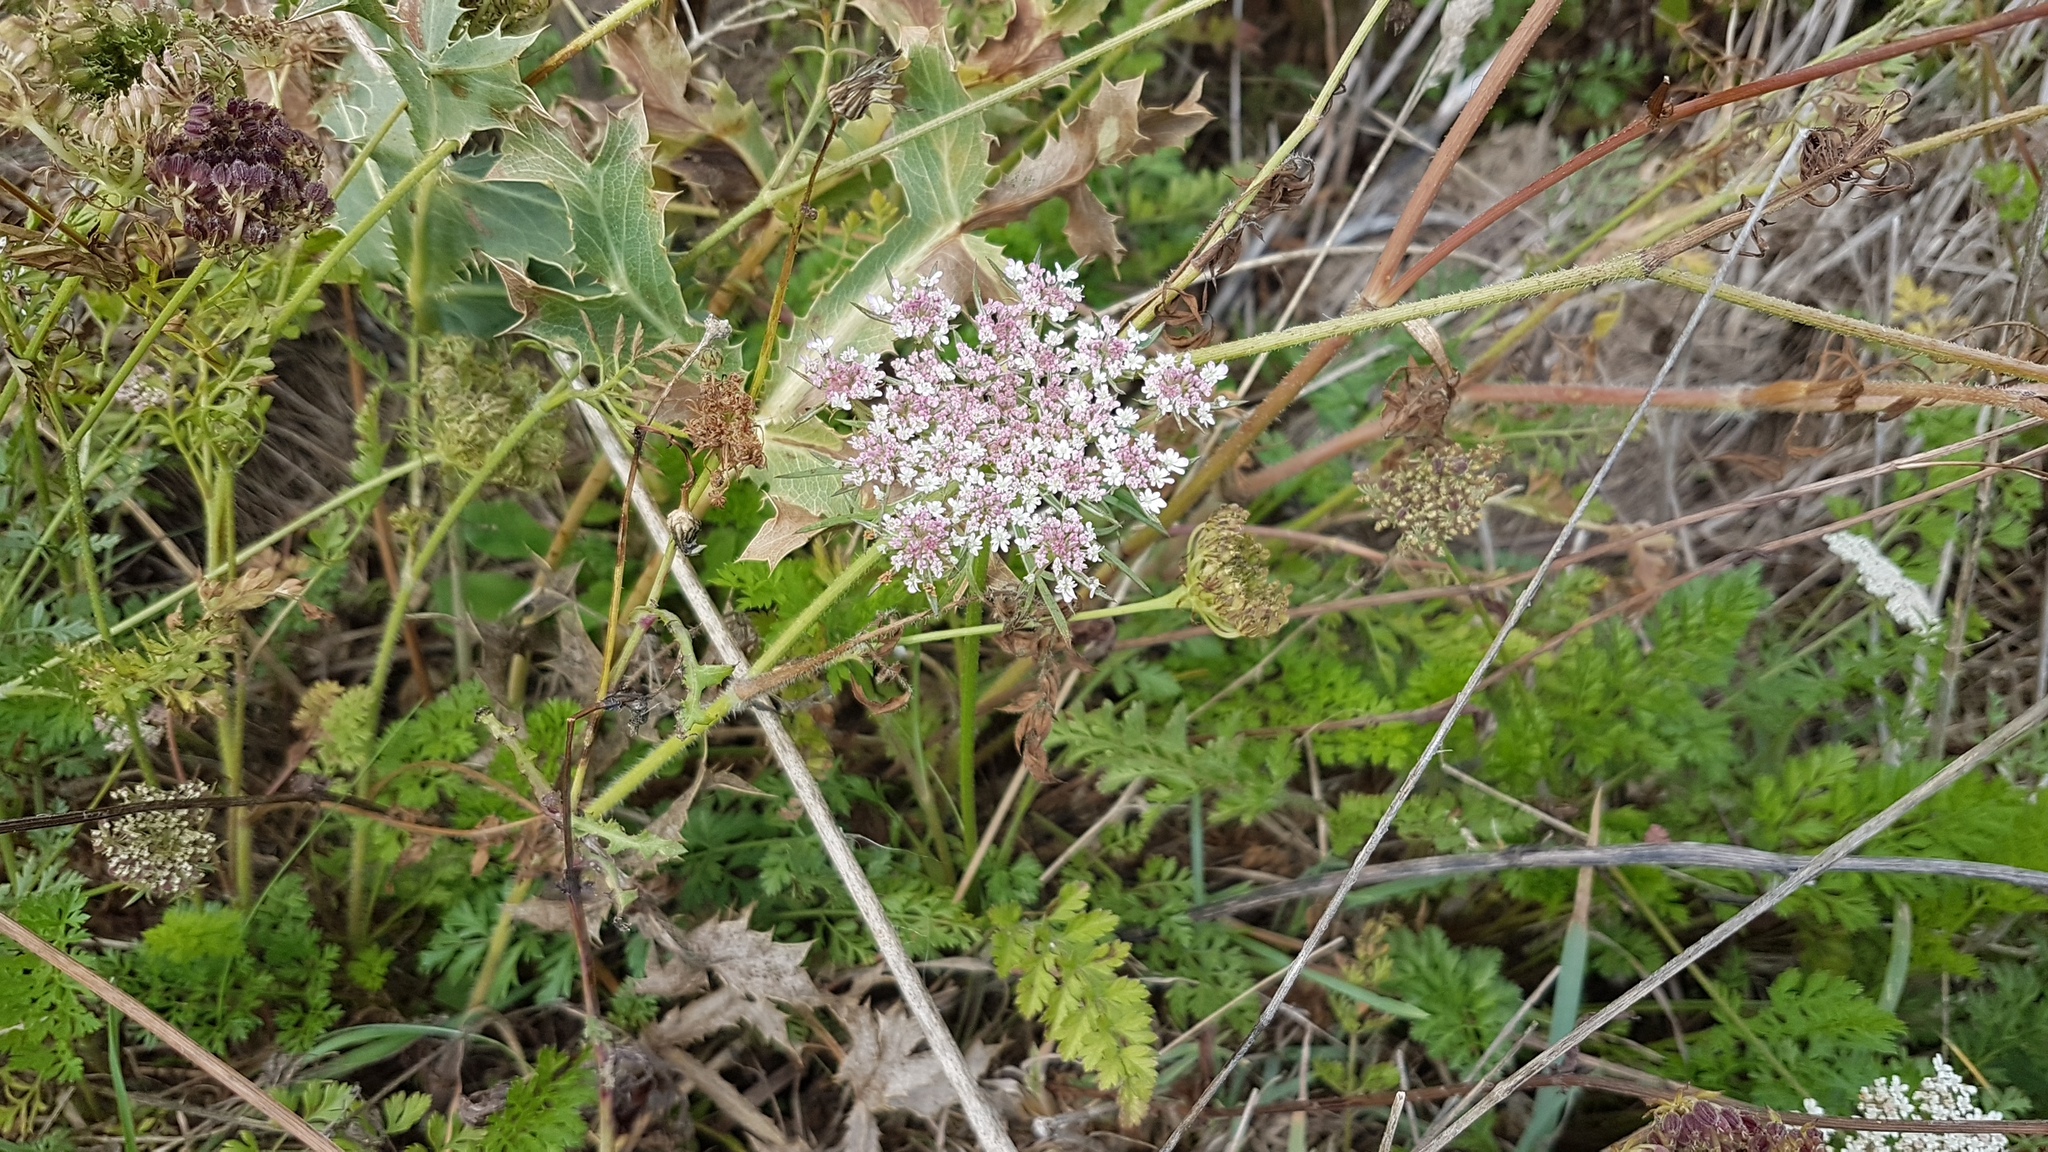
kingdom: Plantae
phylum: Tracheophyta
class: Magnoliopsida
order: Apiales
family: Apiaceae
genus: Daucus
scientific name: Daucus carota
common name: Wild carrot
